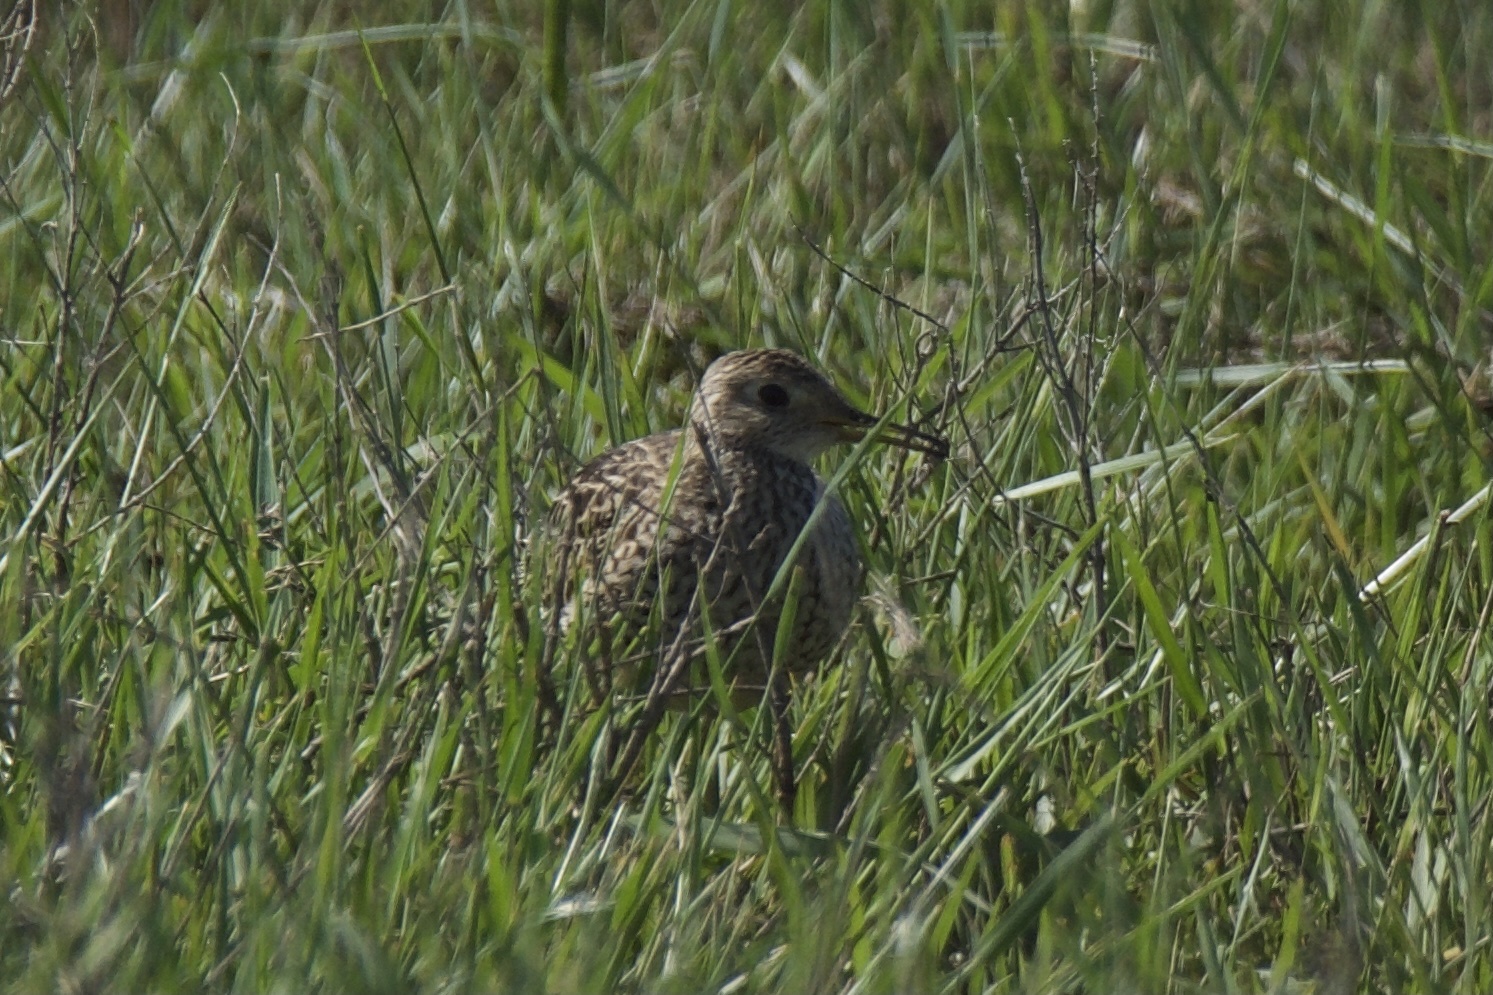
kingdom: Animalia
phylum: Chordata
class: Aves
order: Charadriiformes
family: Scolopacidae
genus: Bartramia
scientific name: Bartramia longicauda
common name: Upland sandpiper
